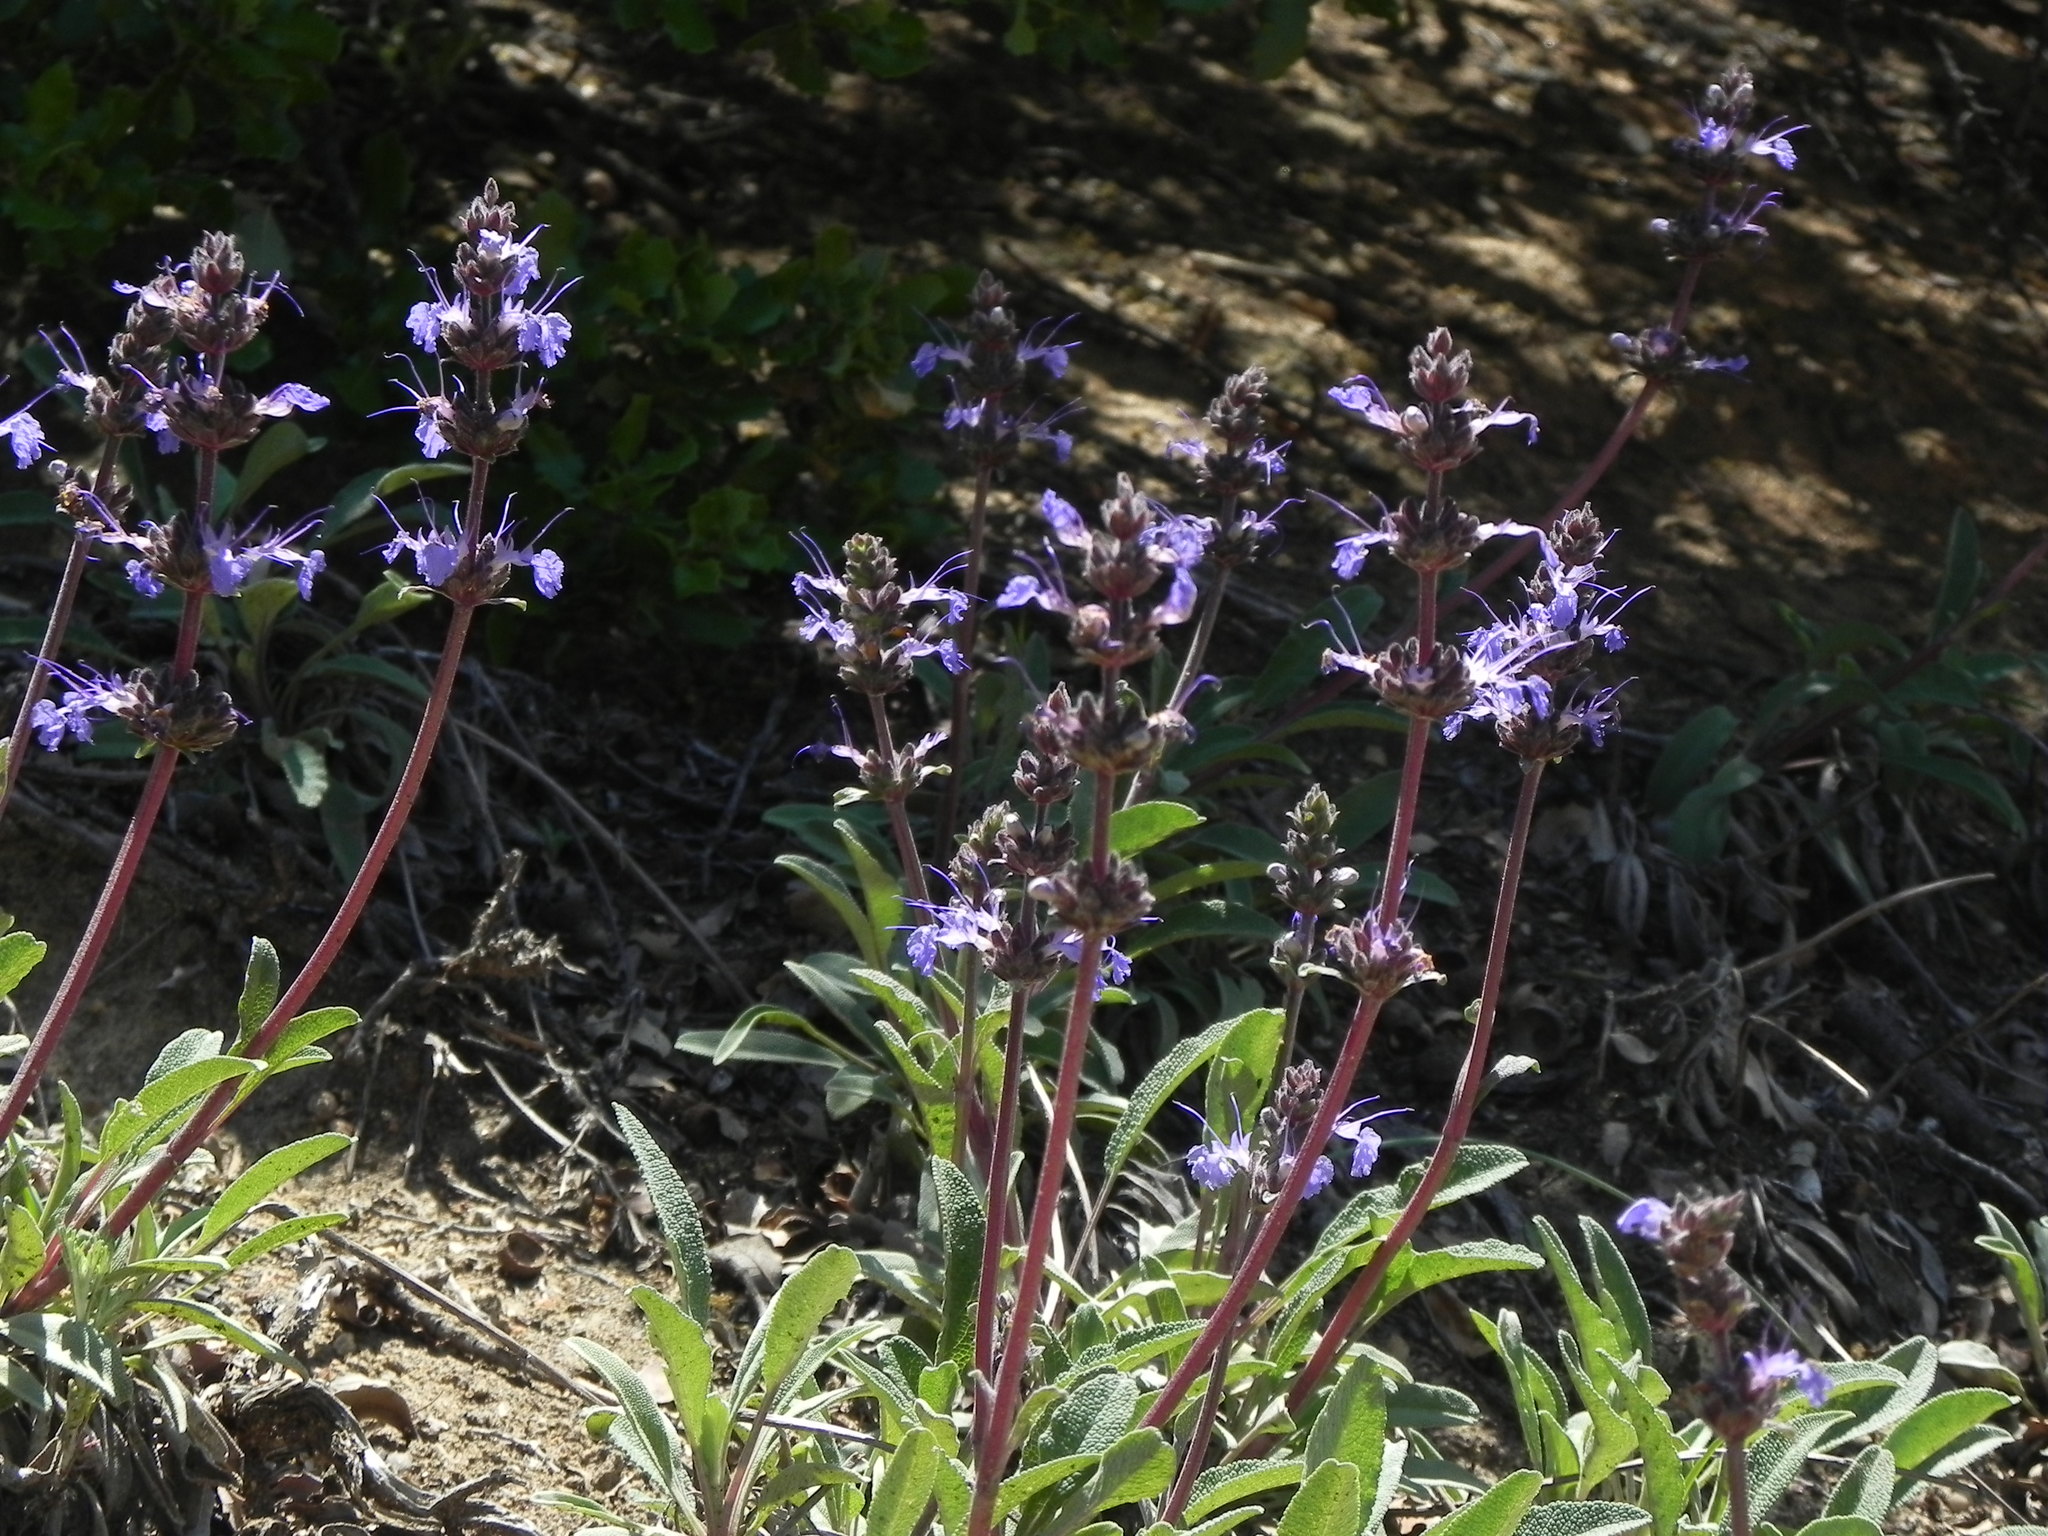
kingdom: Plantae
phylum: Tracheophyta
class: Magnoliopsida
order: Lamiales
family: Lamiaceae
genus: Salvia
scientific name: Salvia sonomensis
